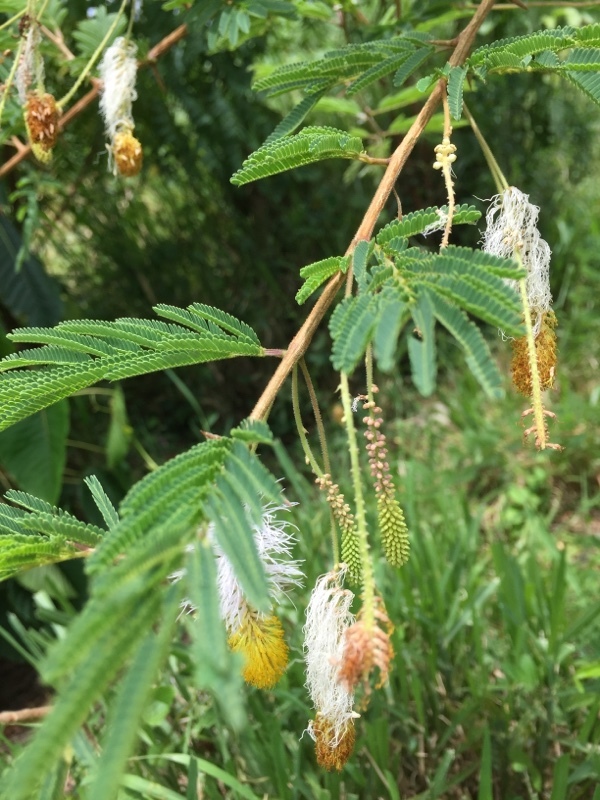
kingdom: Plantae
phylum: Tracheophyta
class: Magnoliopsida
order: Fabales
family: Fabaceae
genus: Dichrostachys
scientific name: Dichrostachys cinerea
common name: Sicklebush
